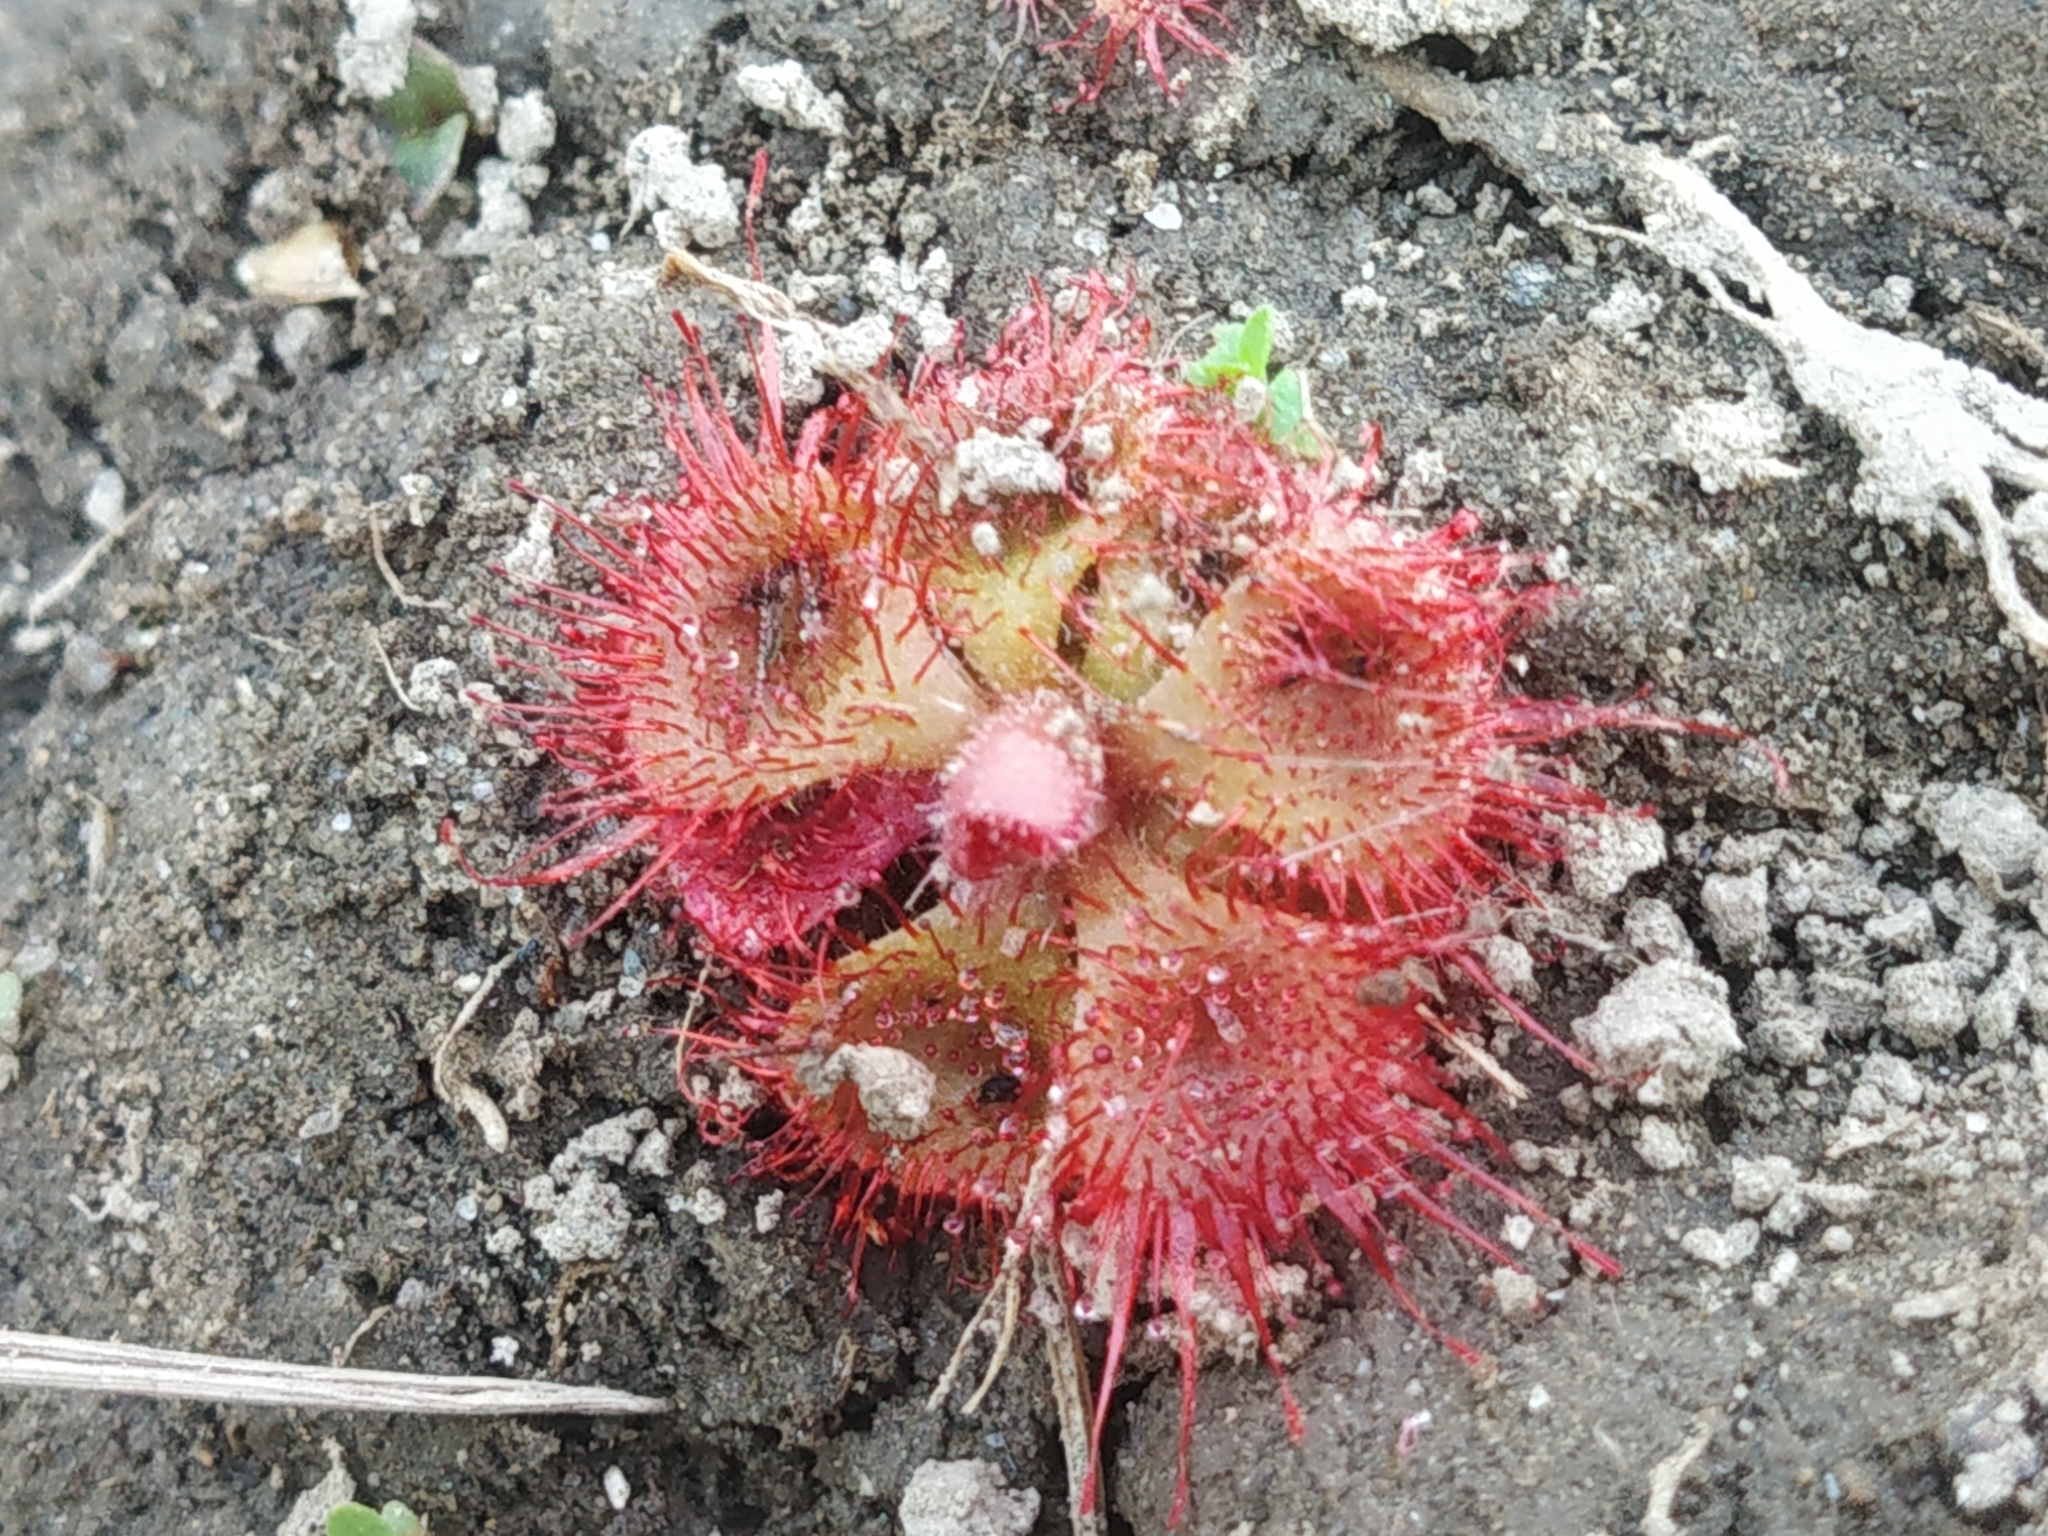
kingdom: Plantae
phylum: Tracheophyta
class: Magnoliopsida
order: Caryophyllales
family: Droseraceae
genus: Drosera
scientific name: Drosera spatulata
